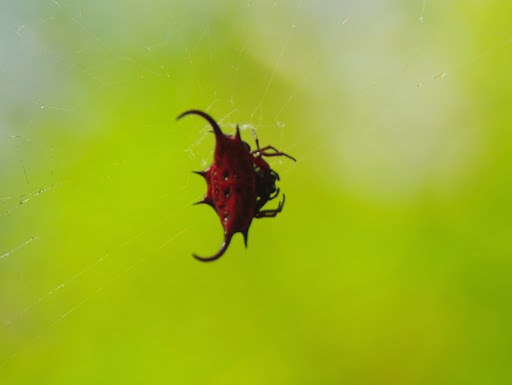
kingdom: Animalia
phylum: Arthropoda
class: Arachnida
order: Araneae
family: Araneidae
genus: Gasteracantha
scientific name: Gasteracantha falcicornis
